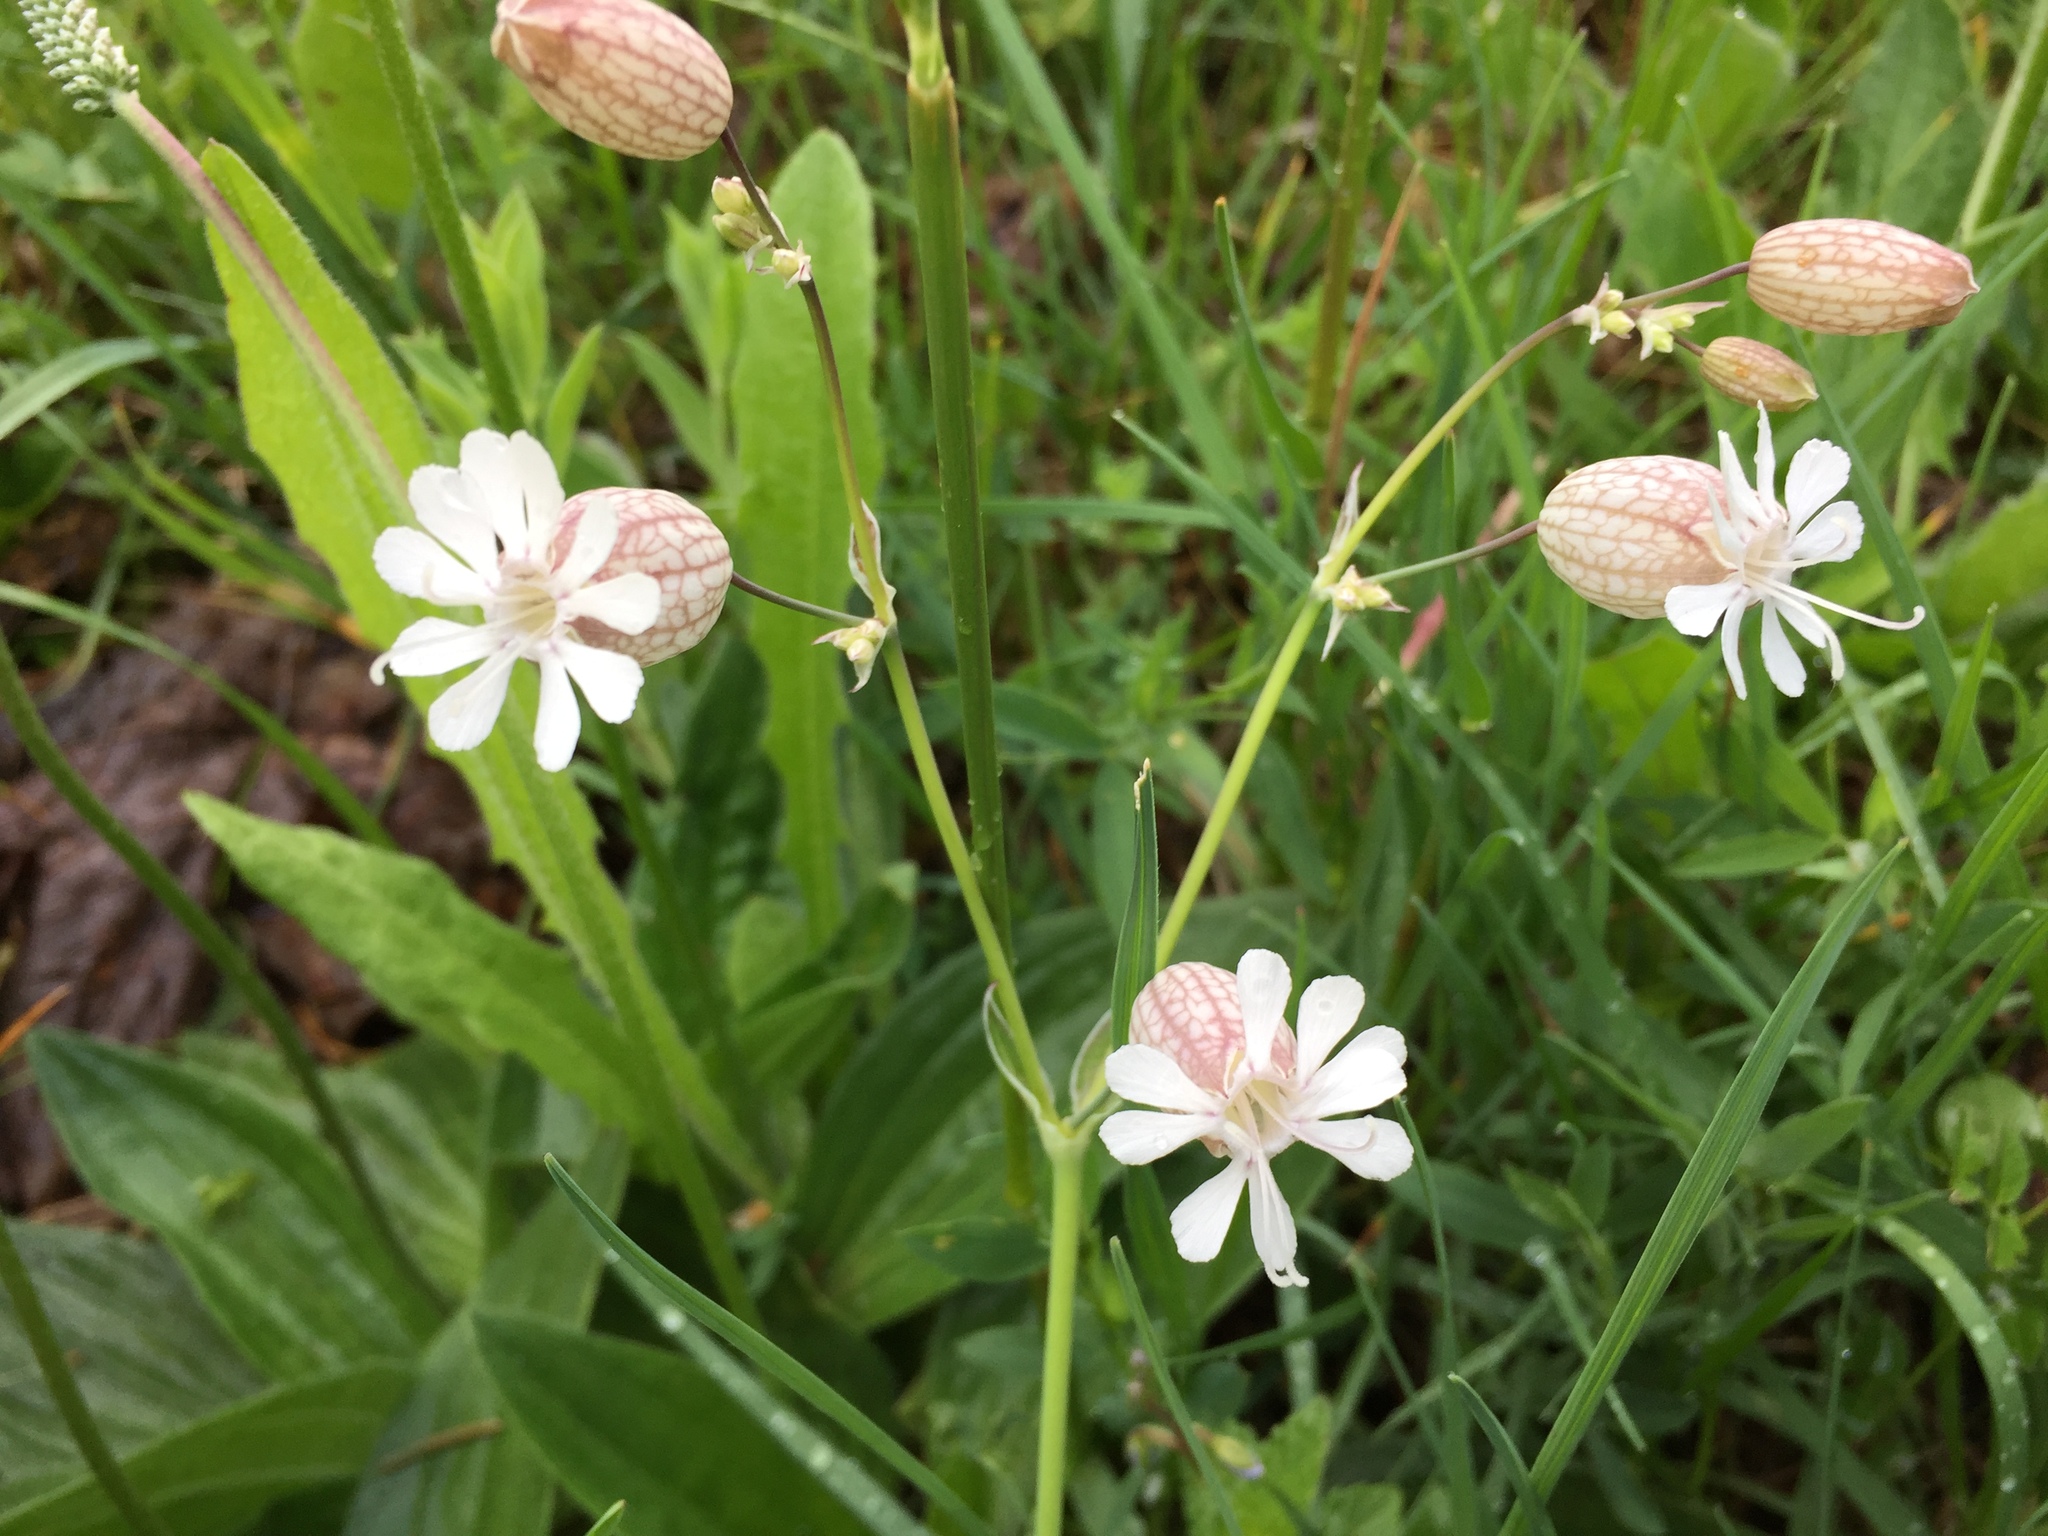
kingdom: Plantae
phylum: Tracheophyta
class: Magnoliopsida
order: Caryophyllales
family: Caryophyllaceae
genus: Silene
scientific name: Silene vulgaris
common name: Bladder campion
